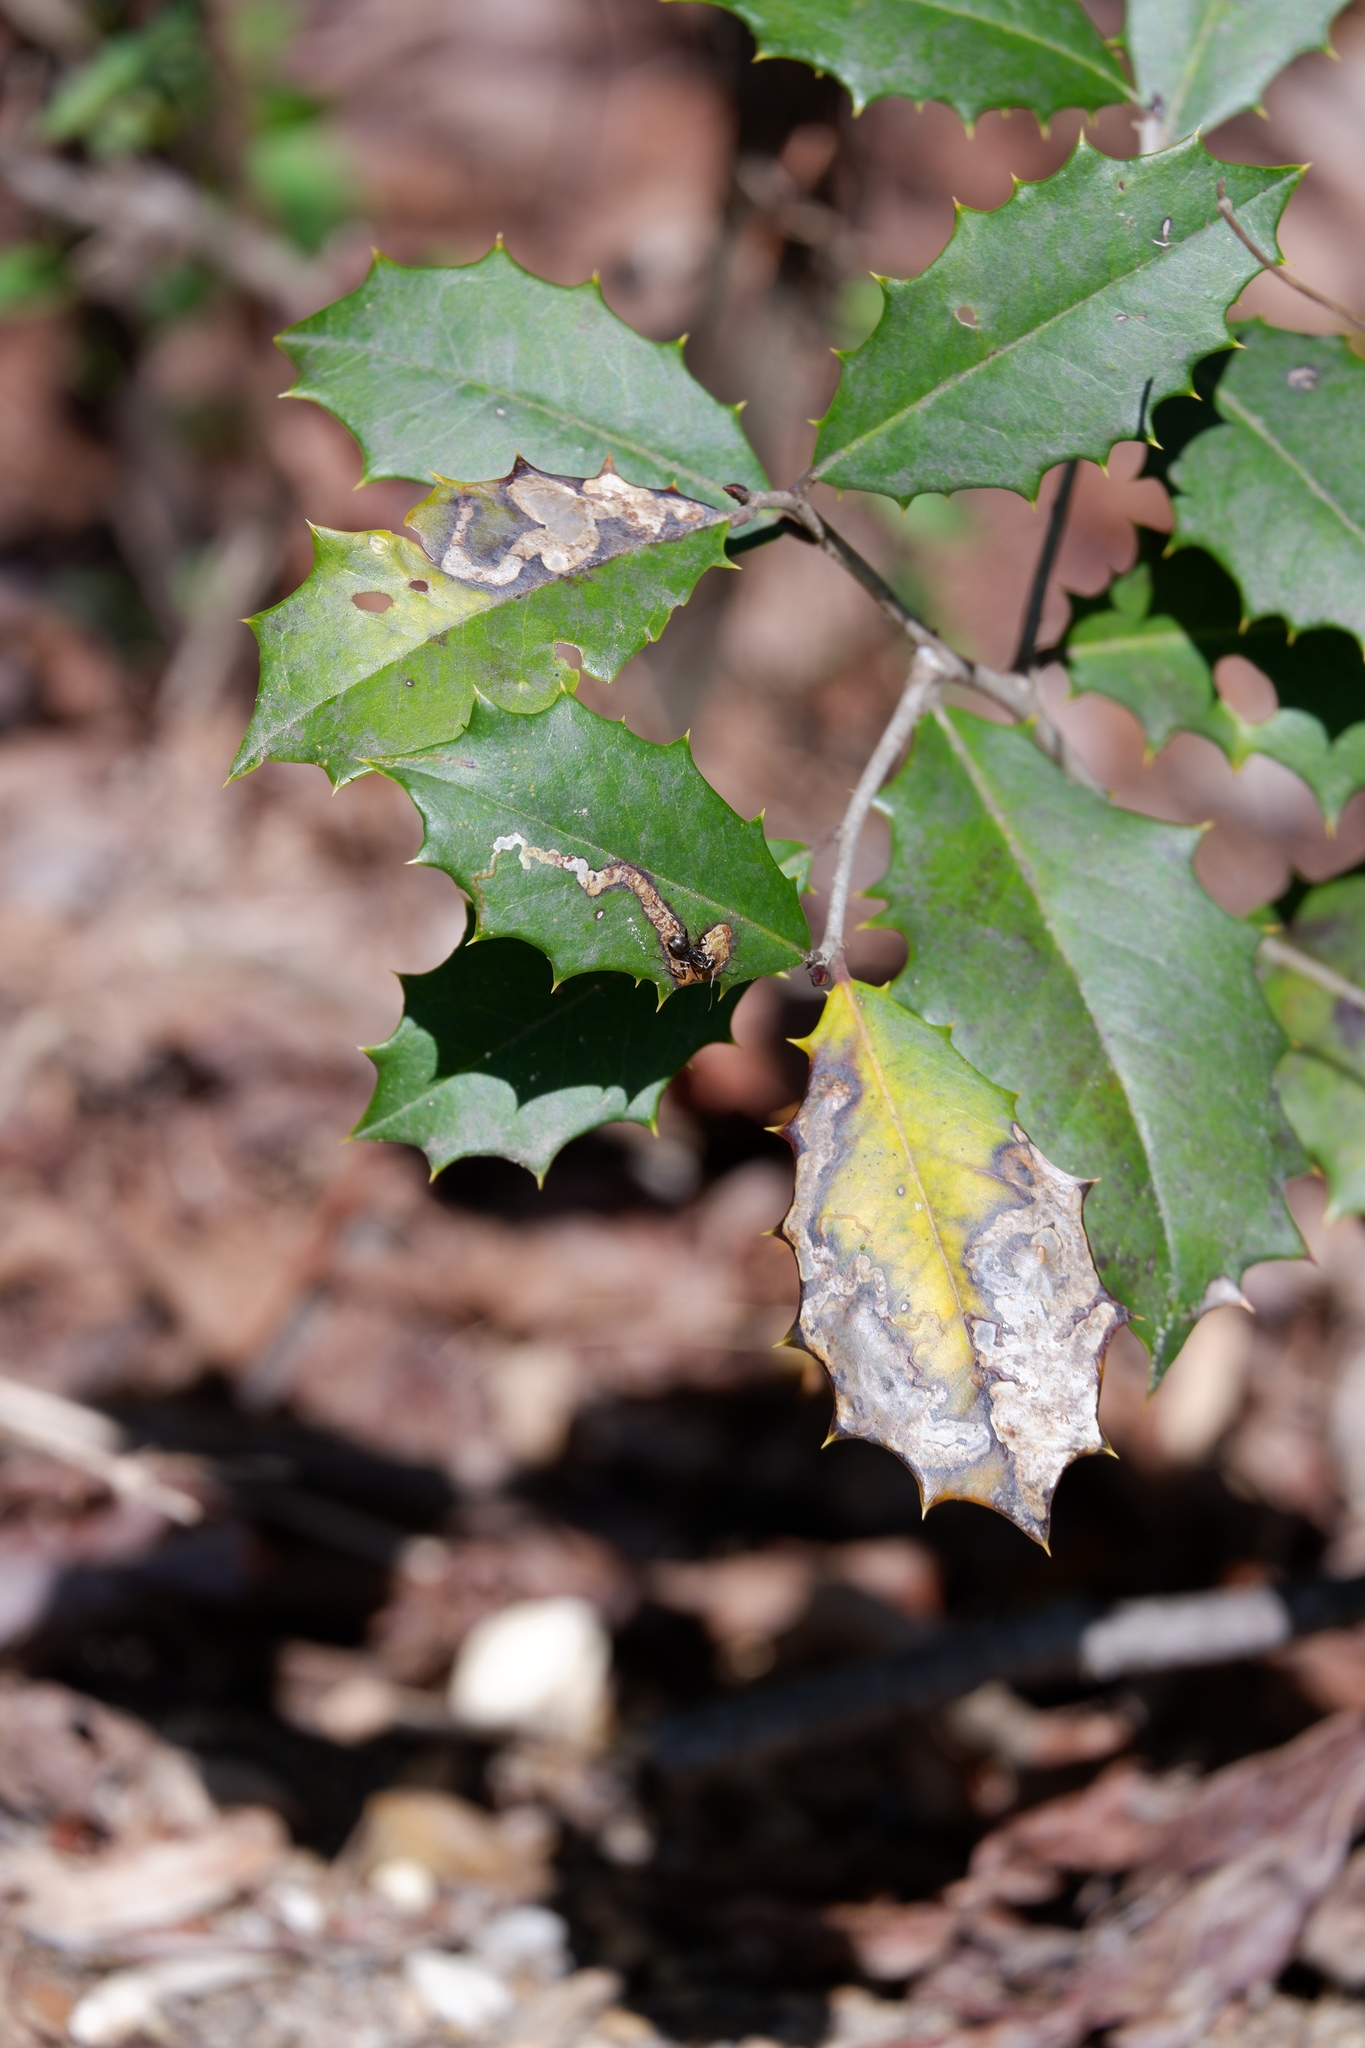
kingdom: Animalia
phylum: Arthropoda
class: Insecta
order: Diptera
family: Agromyzidae
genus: Phytomyza
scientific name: Phytomyza ilicicola
